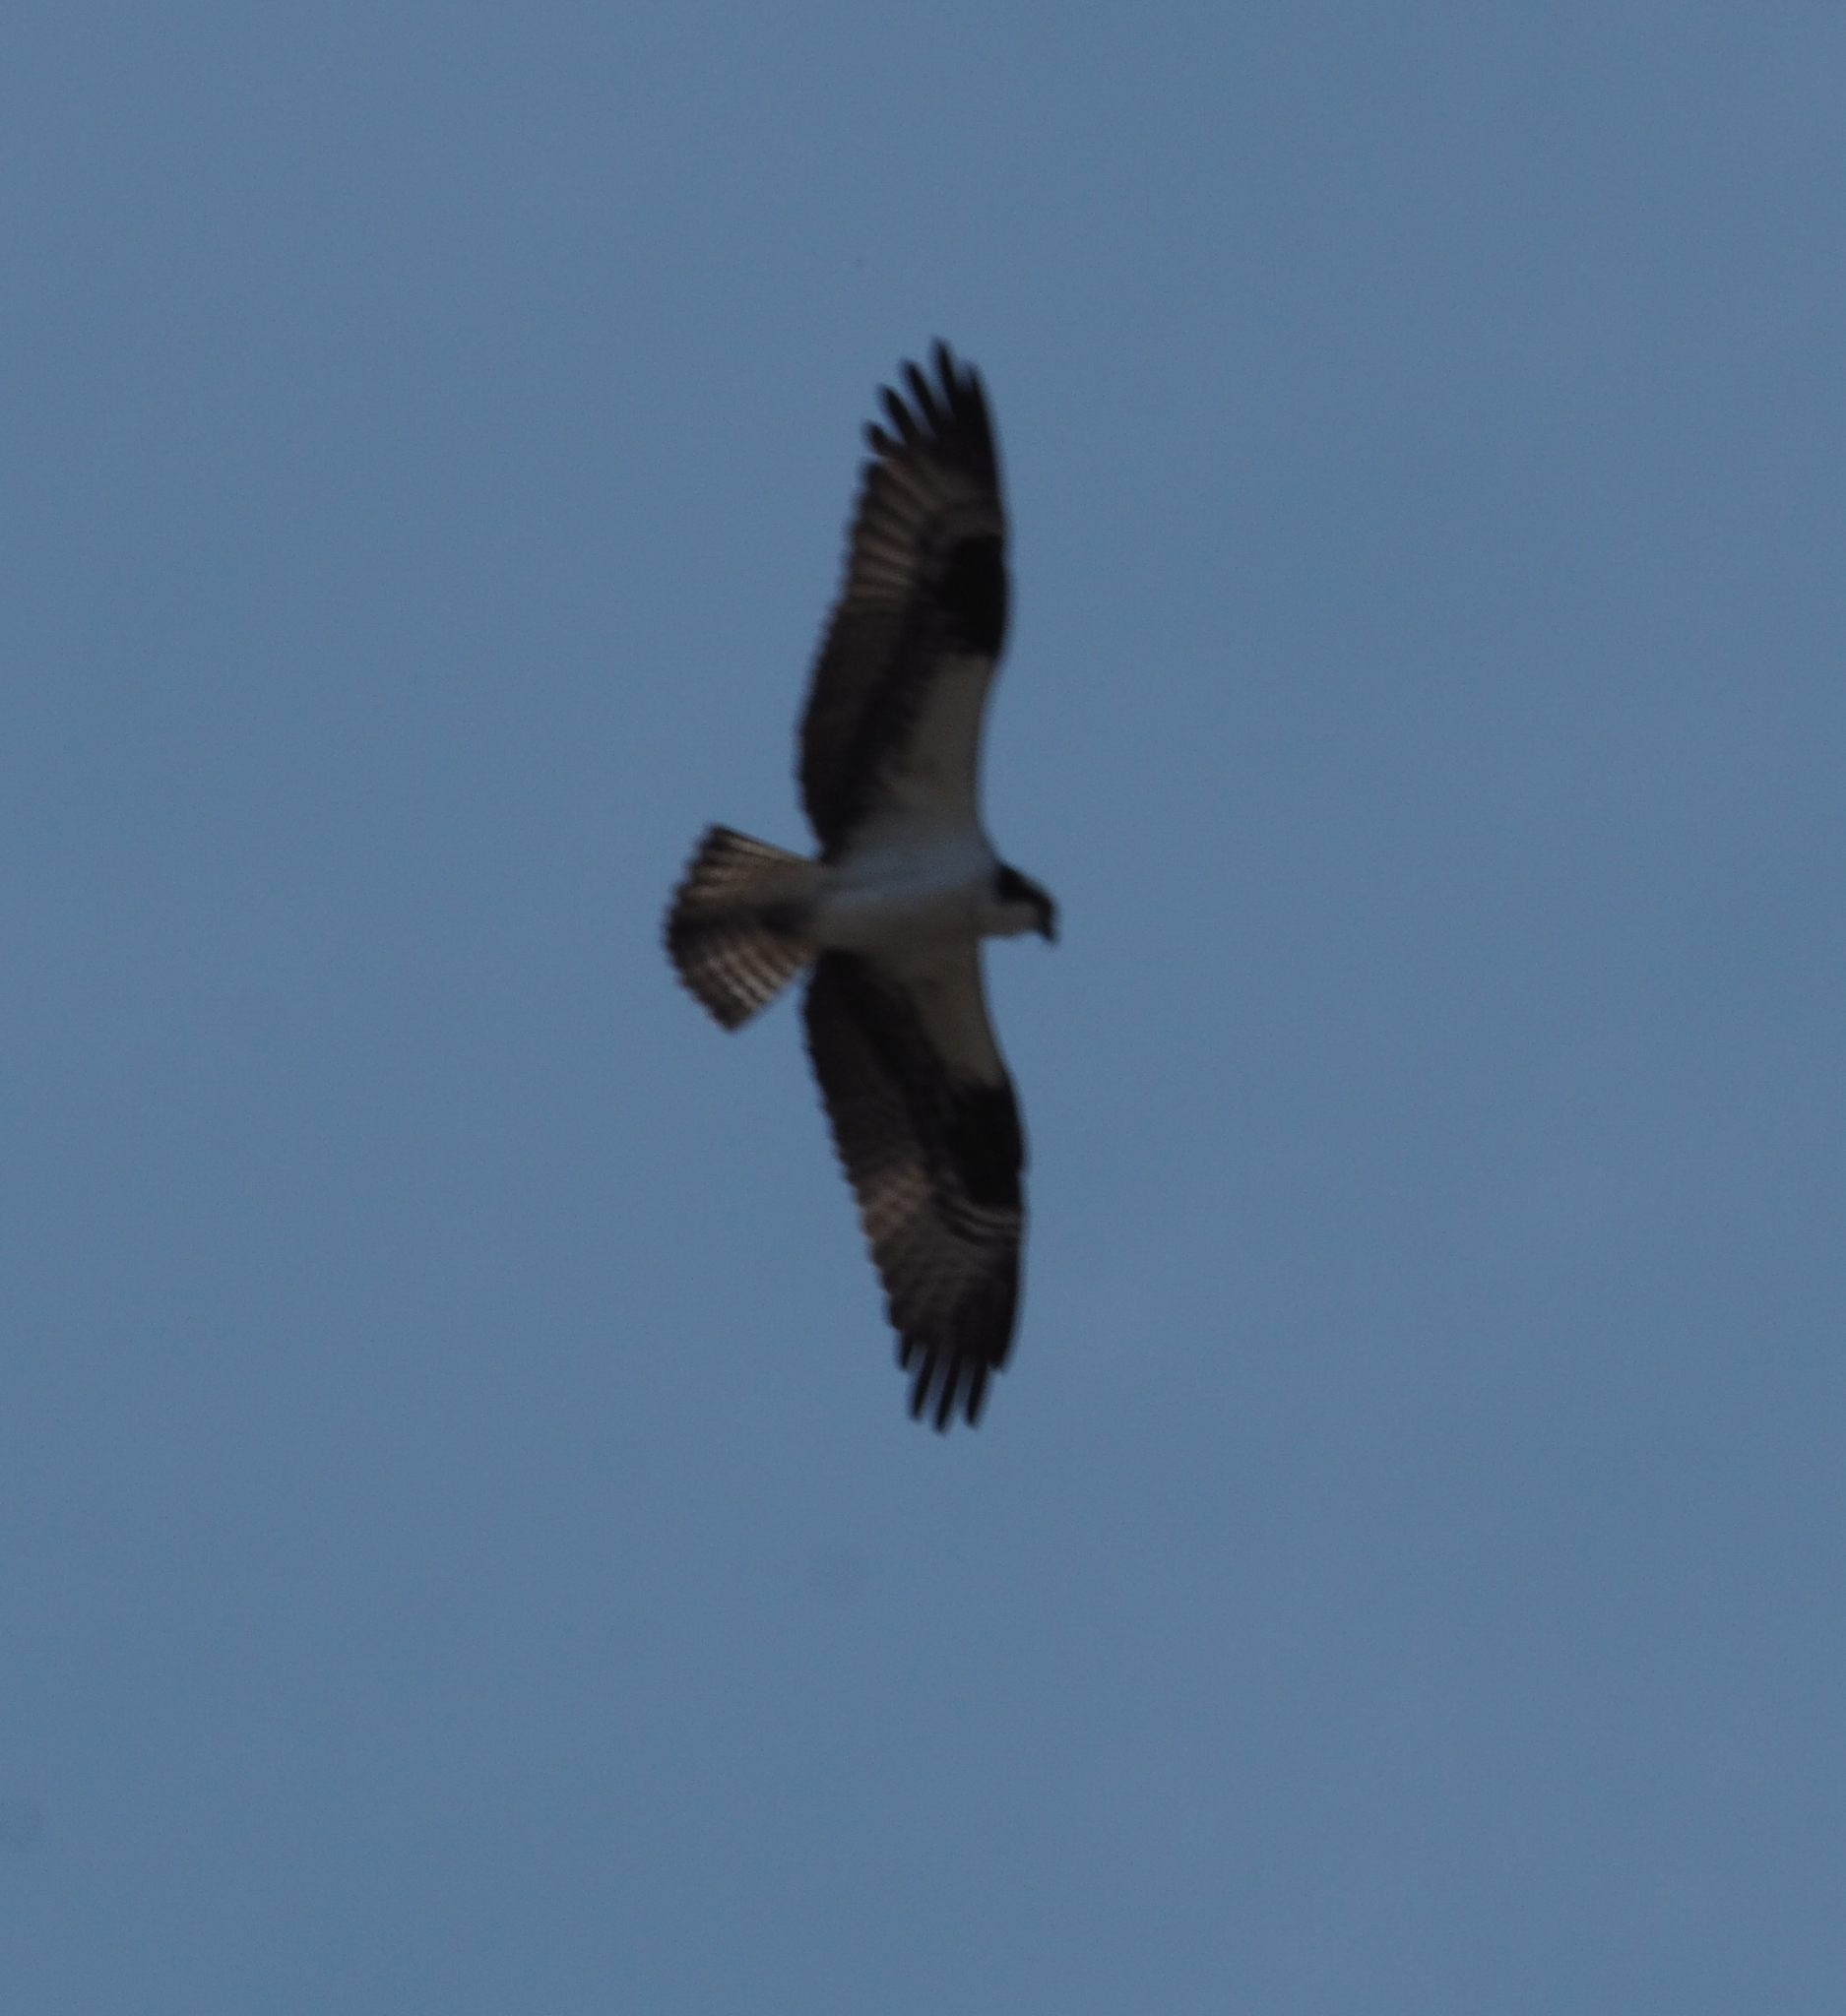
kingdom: Animalia
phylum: Chordata
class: Aves
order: Accipitriformes
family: Pandionidae
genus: Pandion
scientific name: Pandion haliaetus
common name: Osprey
